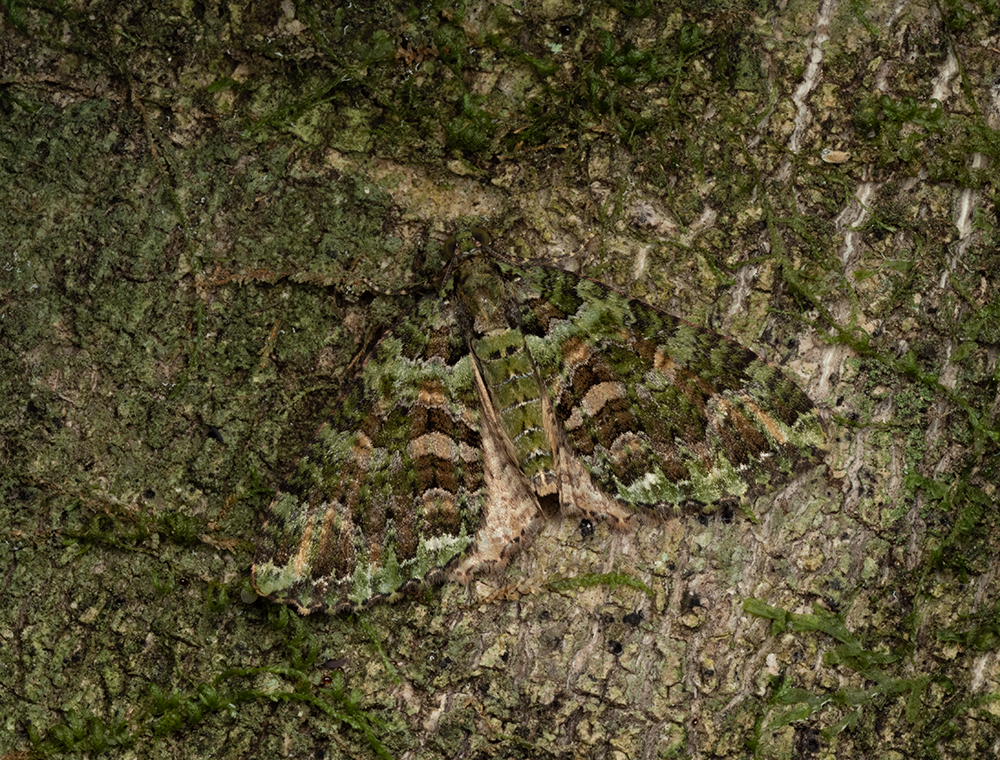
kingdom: Animalia
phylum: Arthropoda
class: Insecta
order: Lepidoptera
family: Geometridae
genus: Austrocidaria
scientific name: Austrocidaria similata
